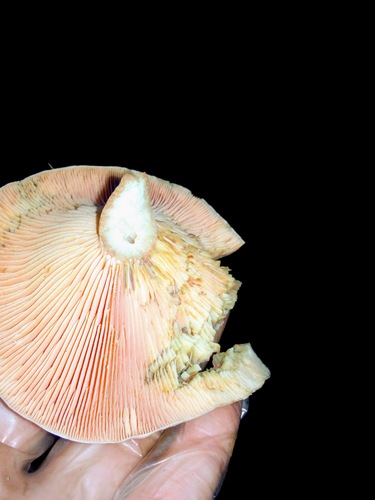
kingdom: Fungi
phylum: Basidiomycota
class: Agaricomycetes
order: Russulales
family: Russulaceae
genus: Lactarius
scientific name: Lactarius deliciosus
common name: Saffron milk-cap
